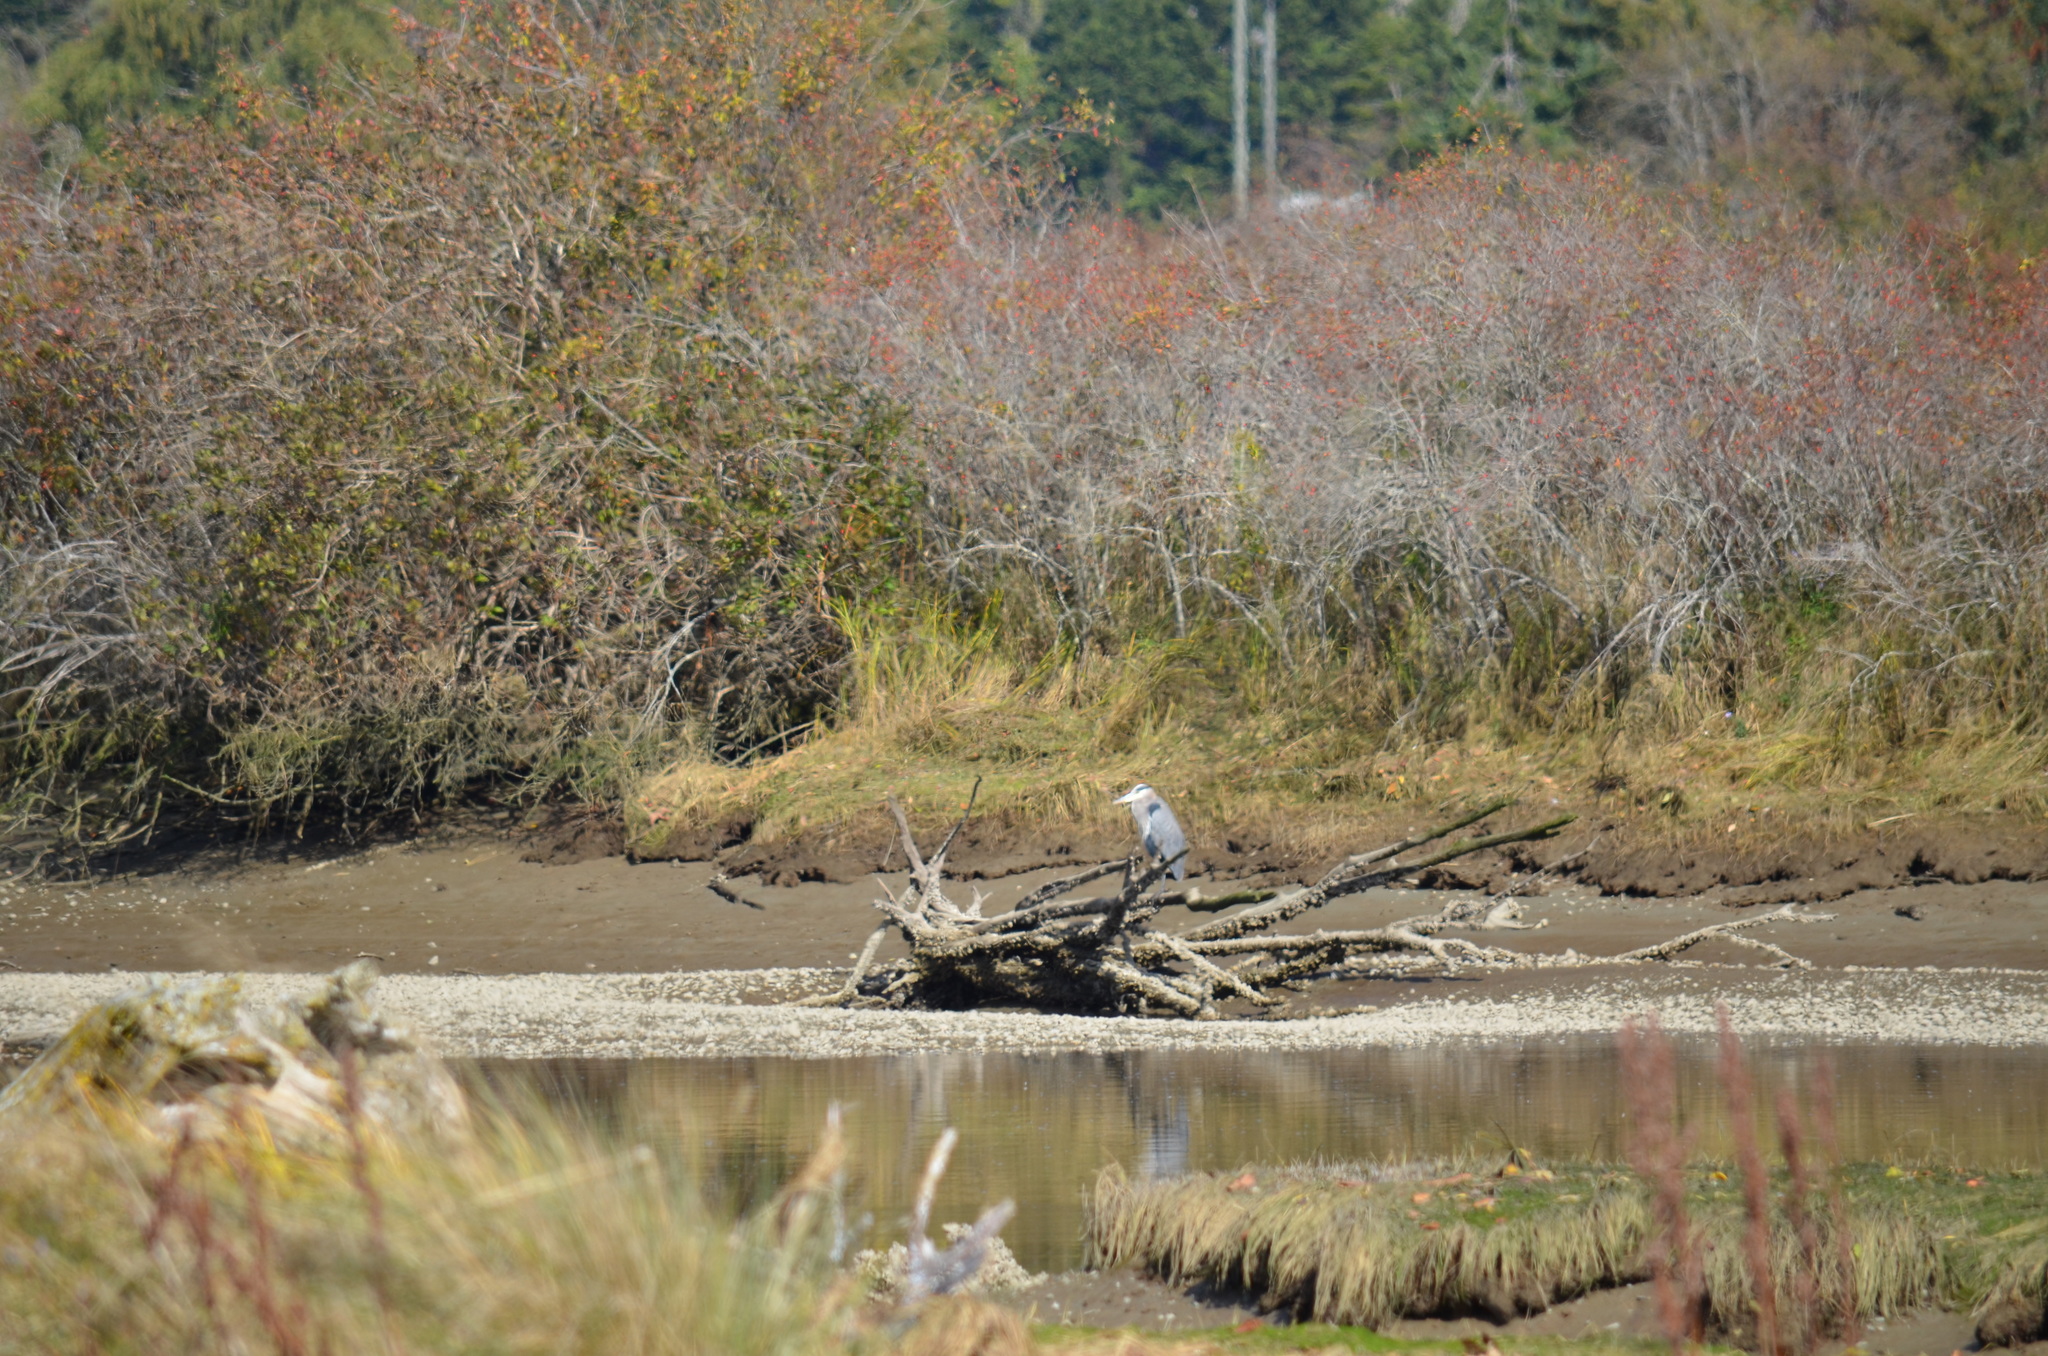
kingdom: Animalia
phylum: Chordata
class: Aves
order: Pelecaniformes
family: Ardeidae
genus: Ardea
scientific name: Ardea herodias
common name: Great blue heron
